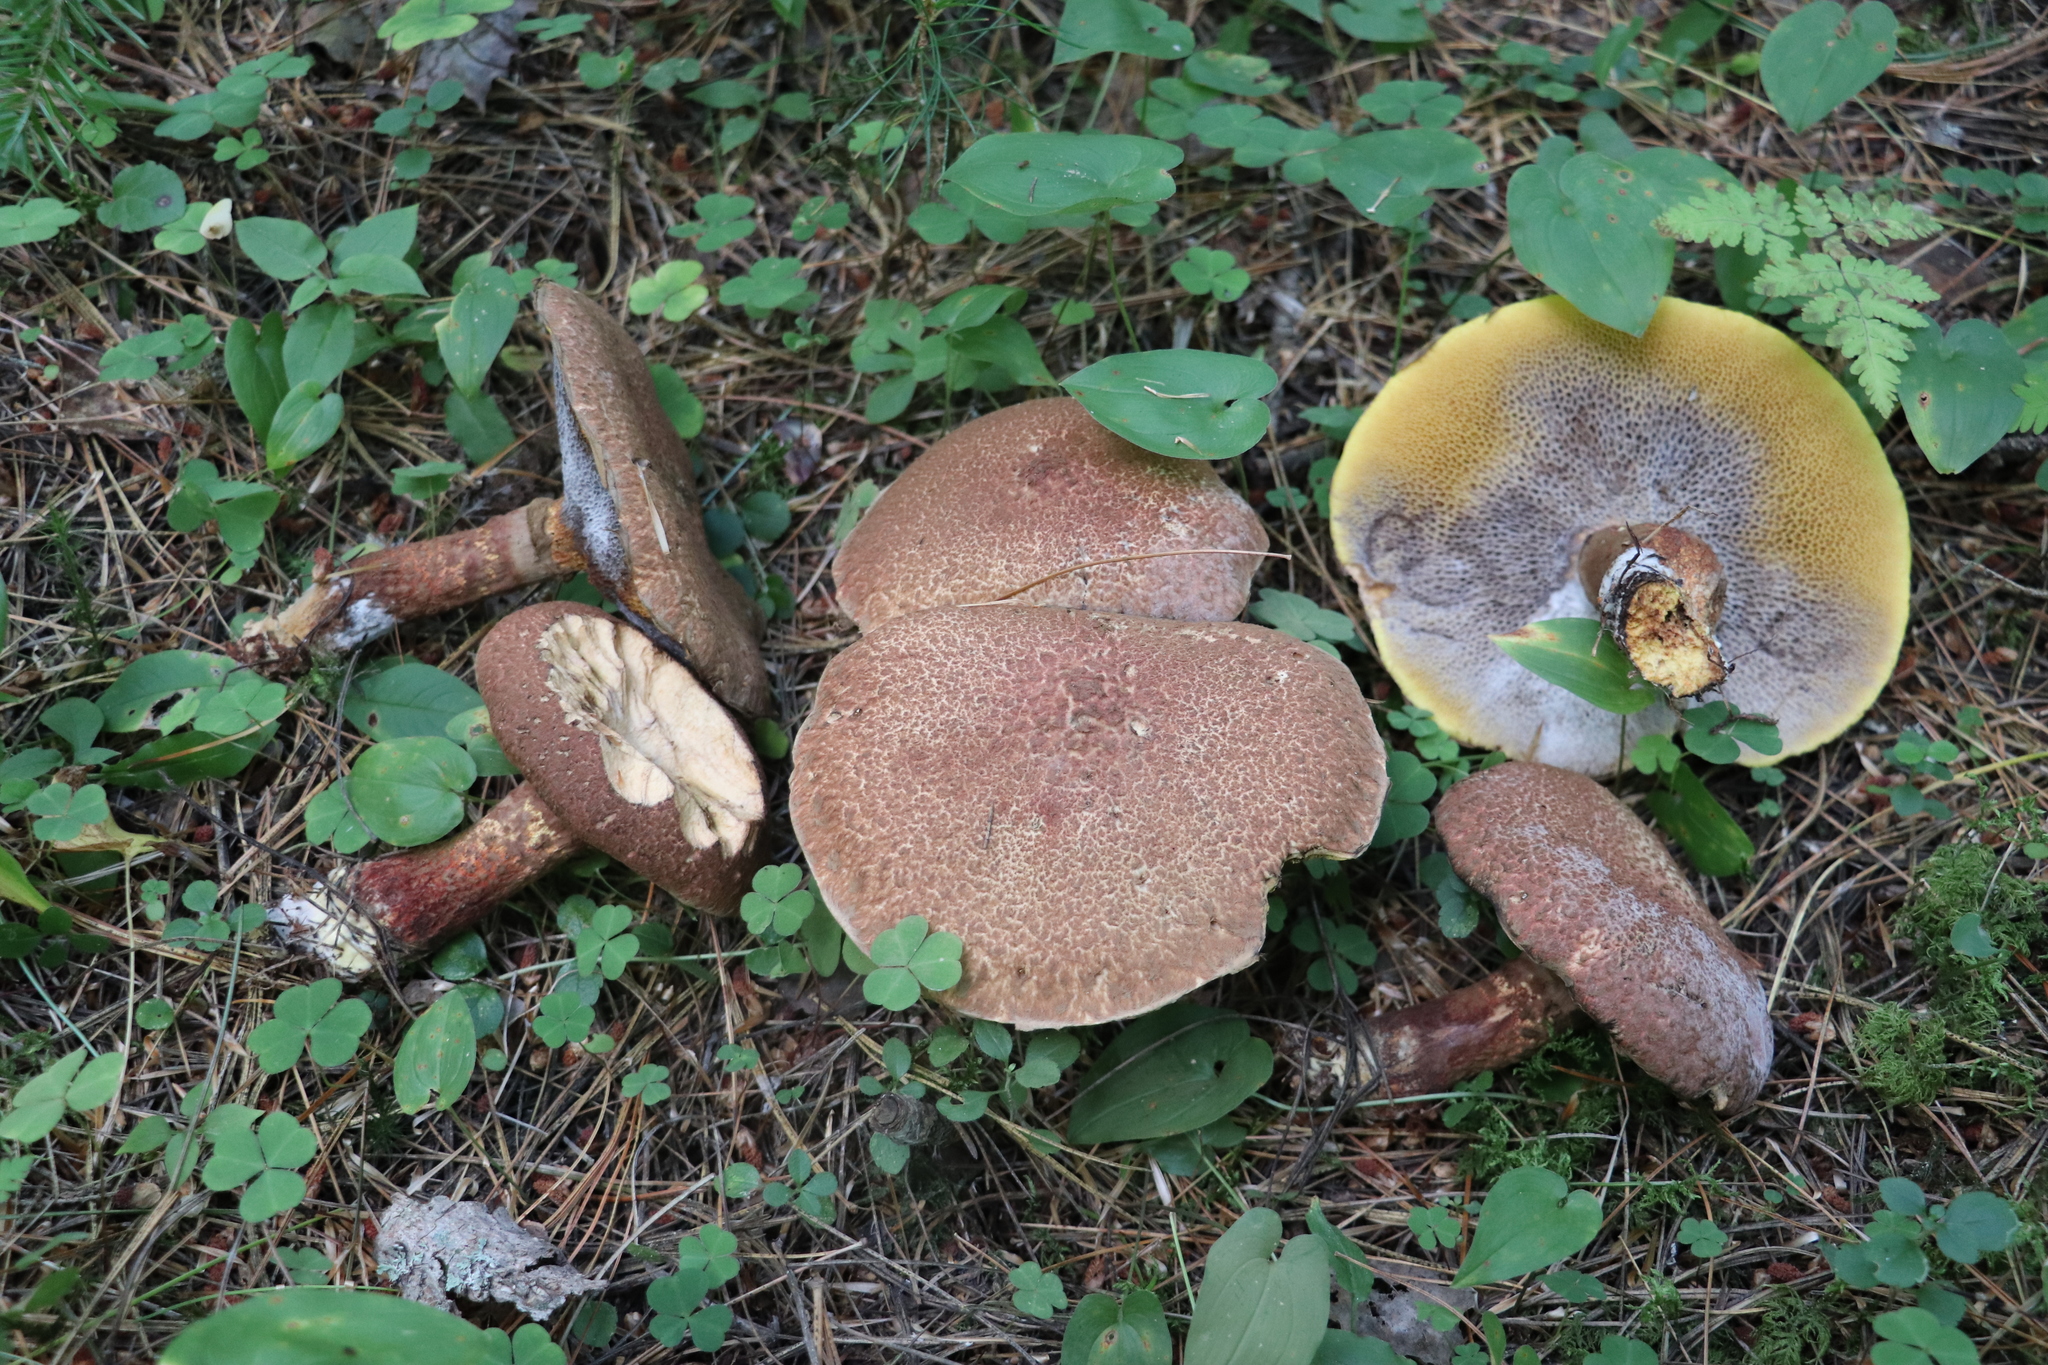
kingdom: Fungi
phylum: Basidiomycota
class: Agaricomycetes
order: Boletales
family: Suillaceae
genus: Suillus
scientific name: Suillus spraguei
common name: Painted suillus
